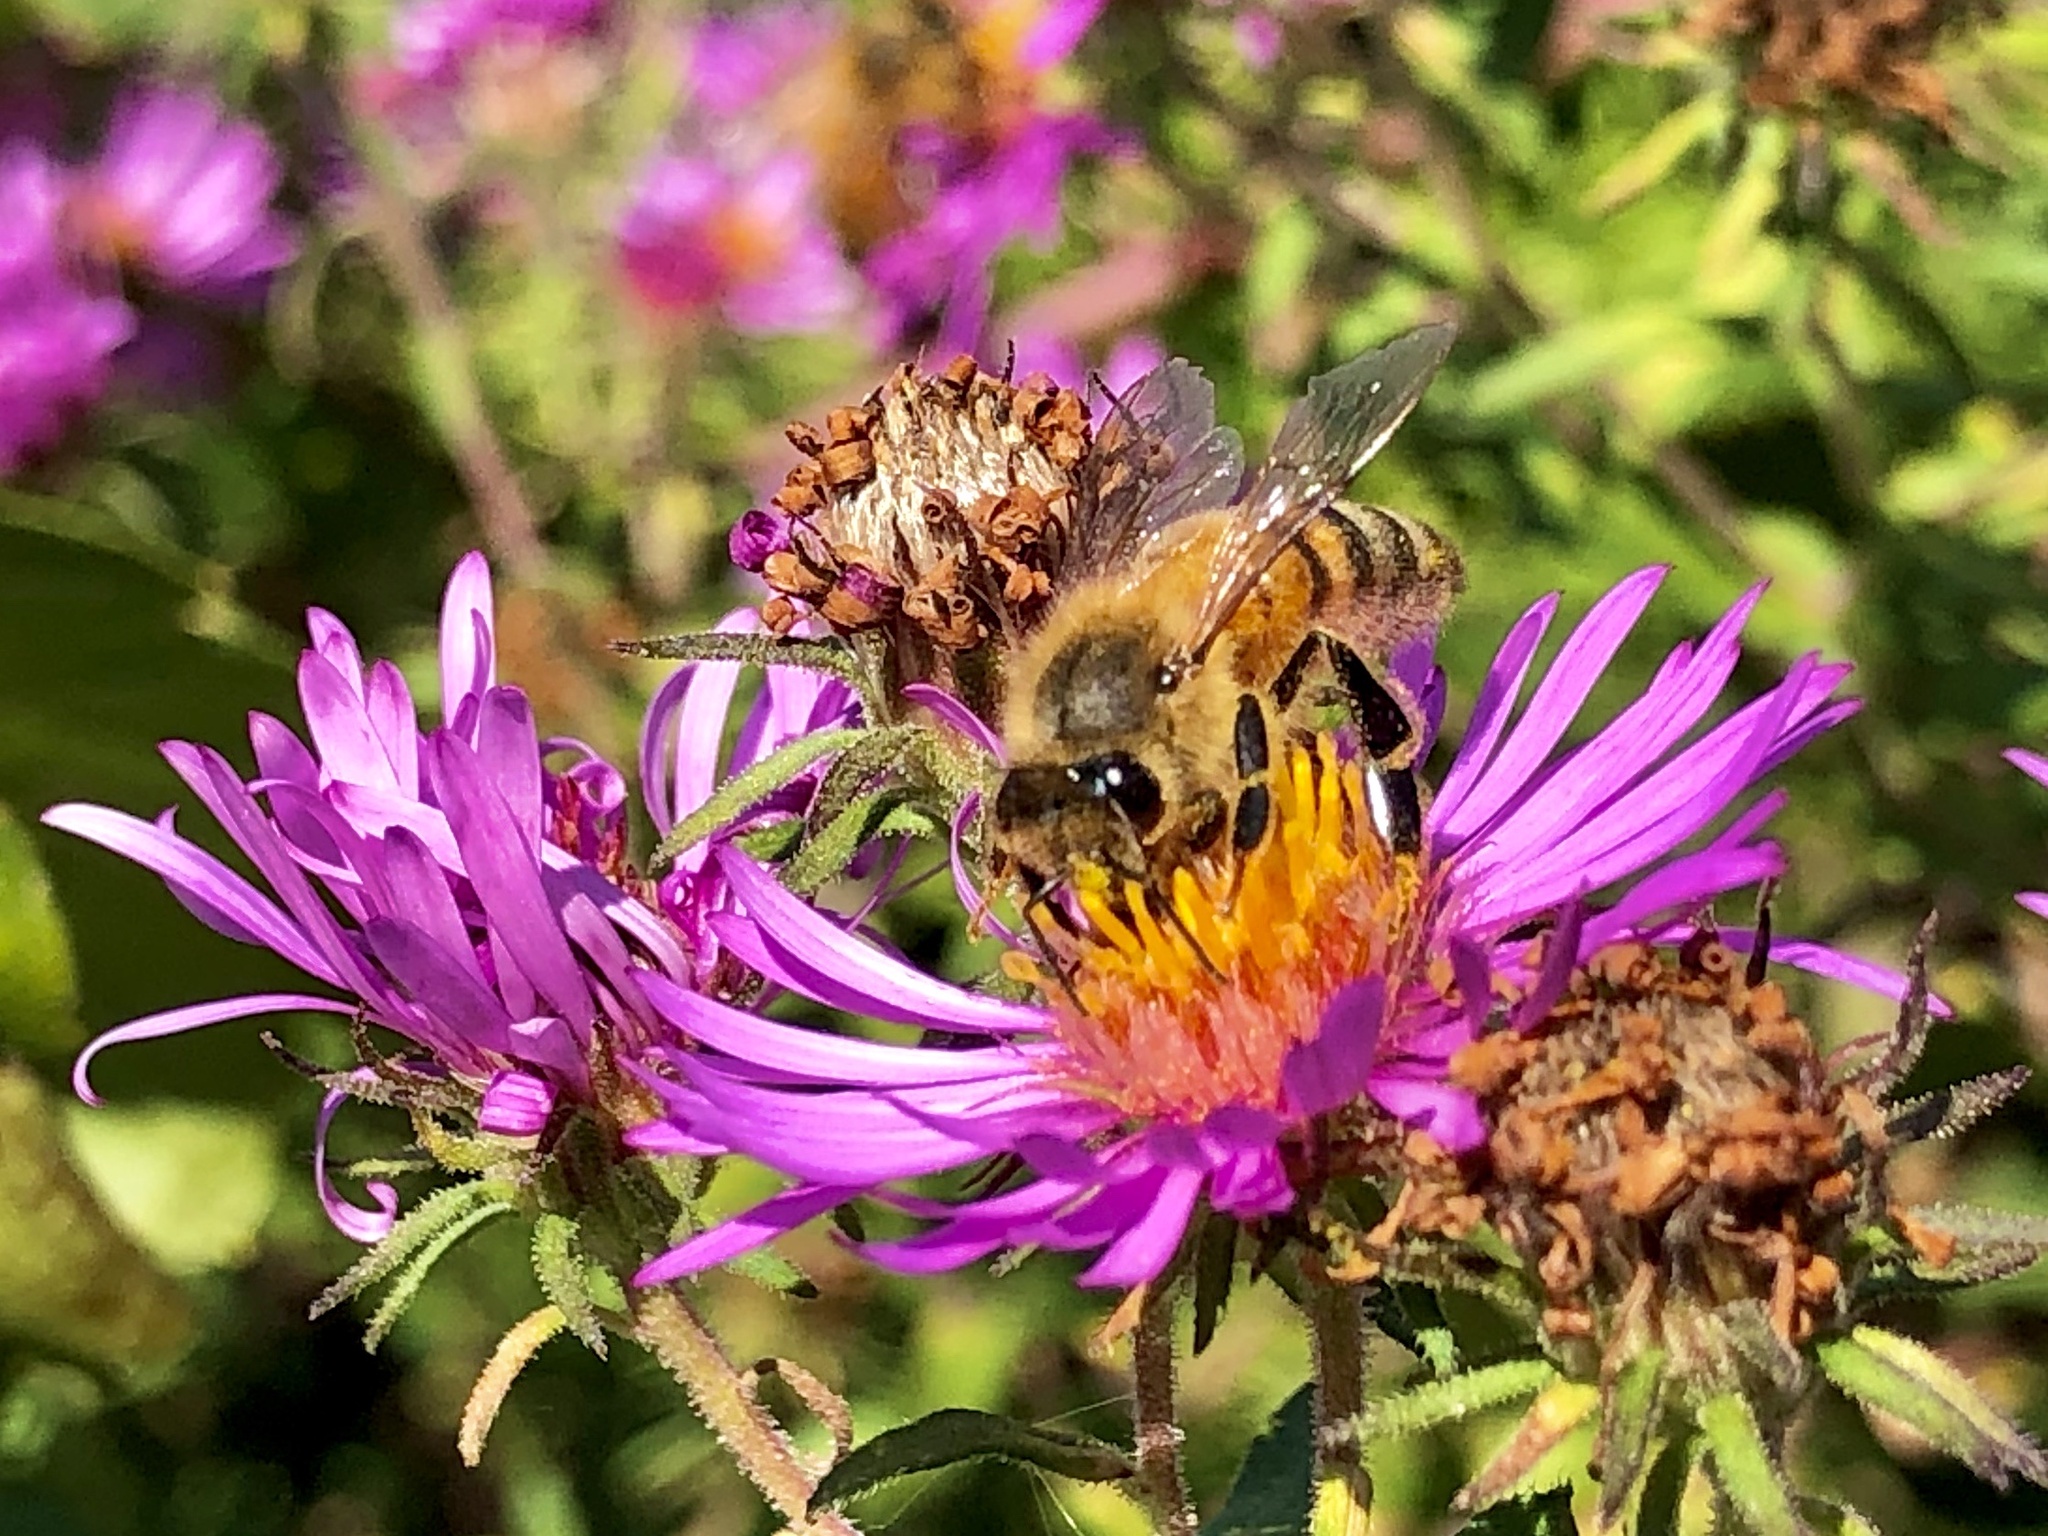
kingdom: Animalia
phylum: Arthropoda
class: Insecta
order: Hymenoptera
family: Apidae
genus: Apis
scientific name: Apis mellifera
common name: Honey bee
